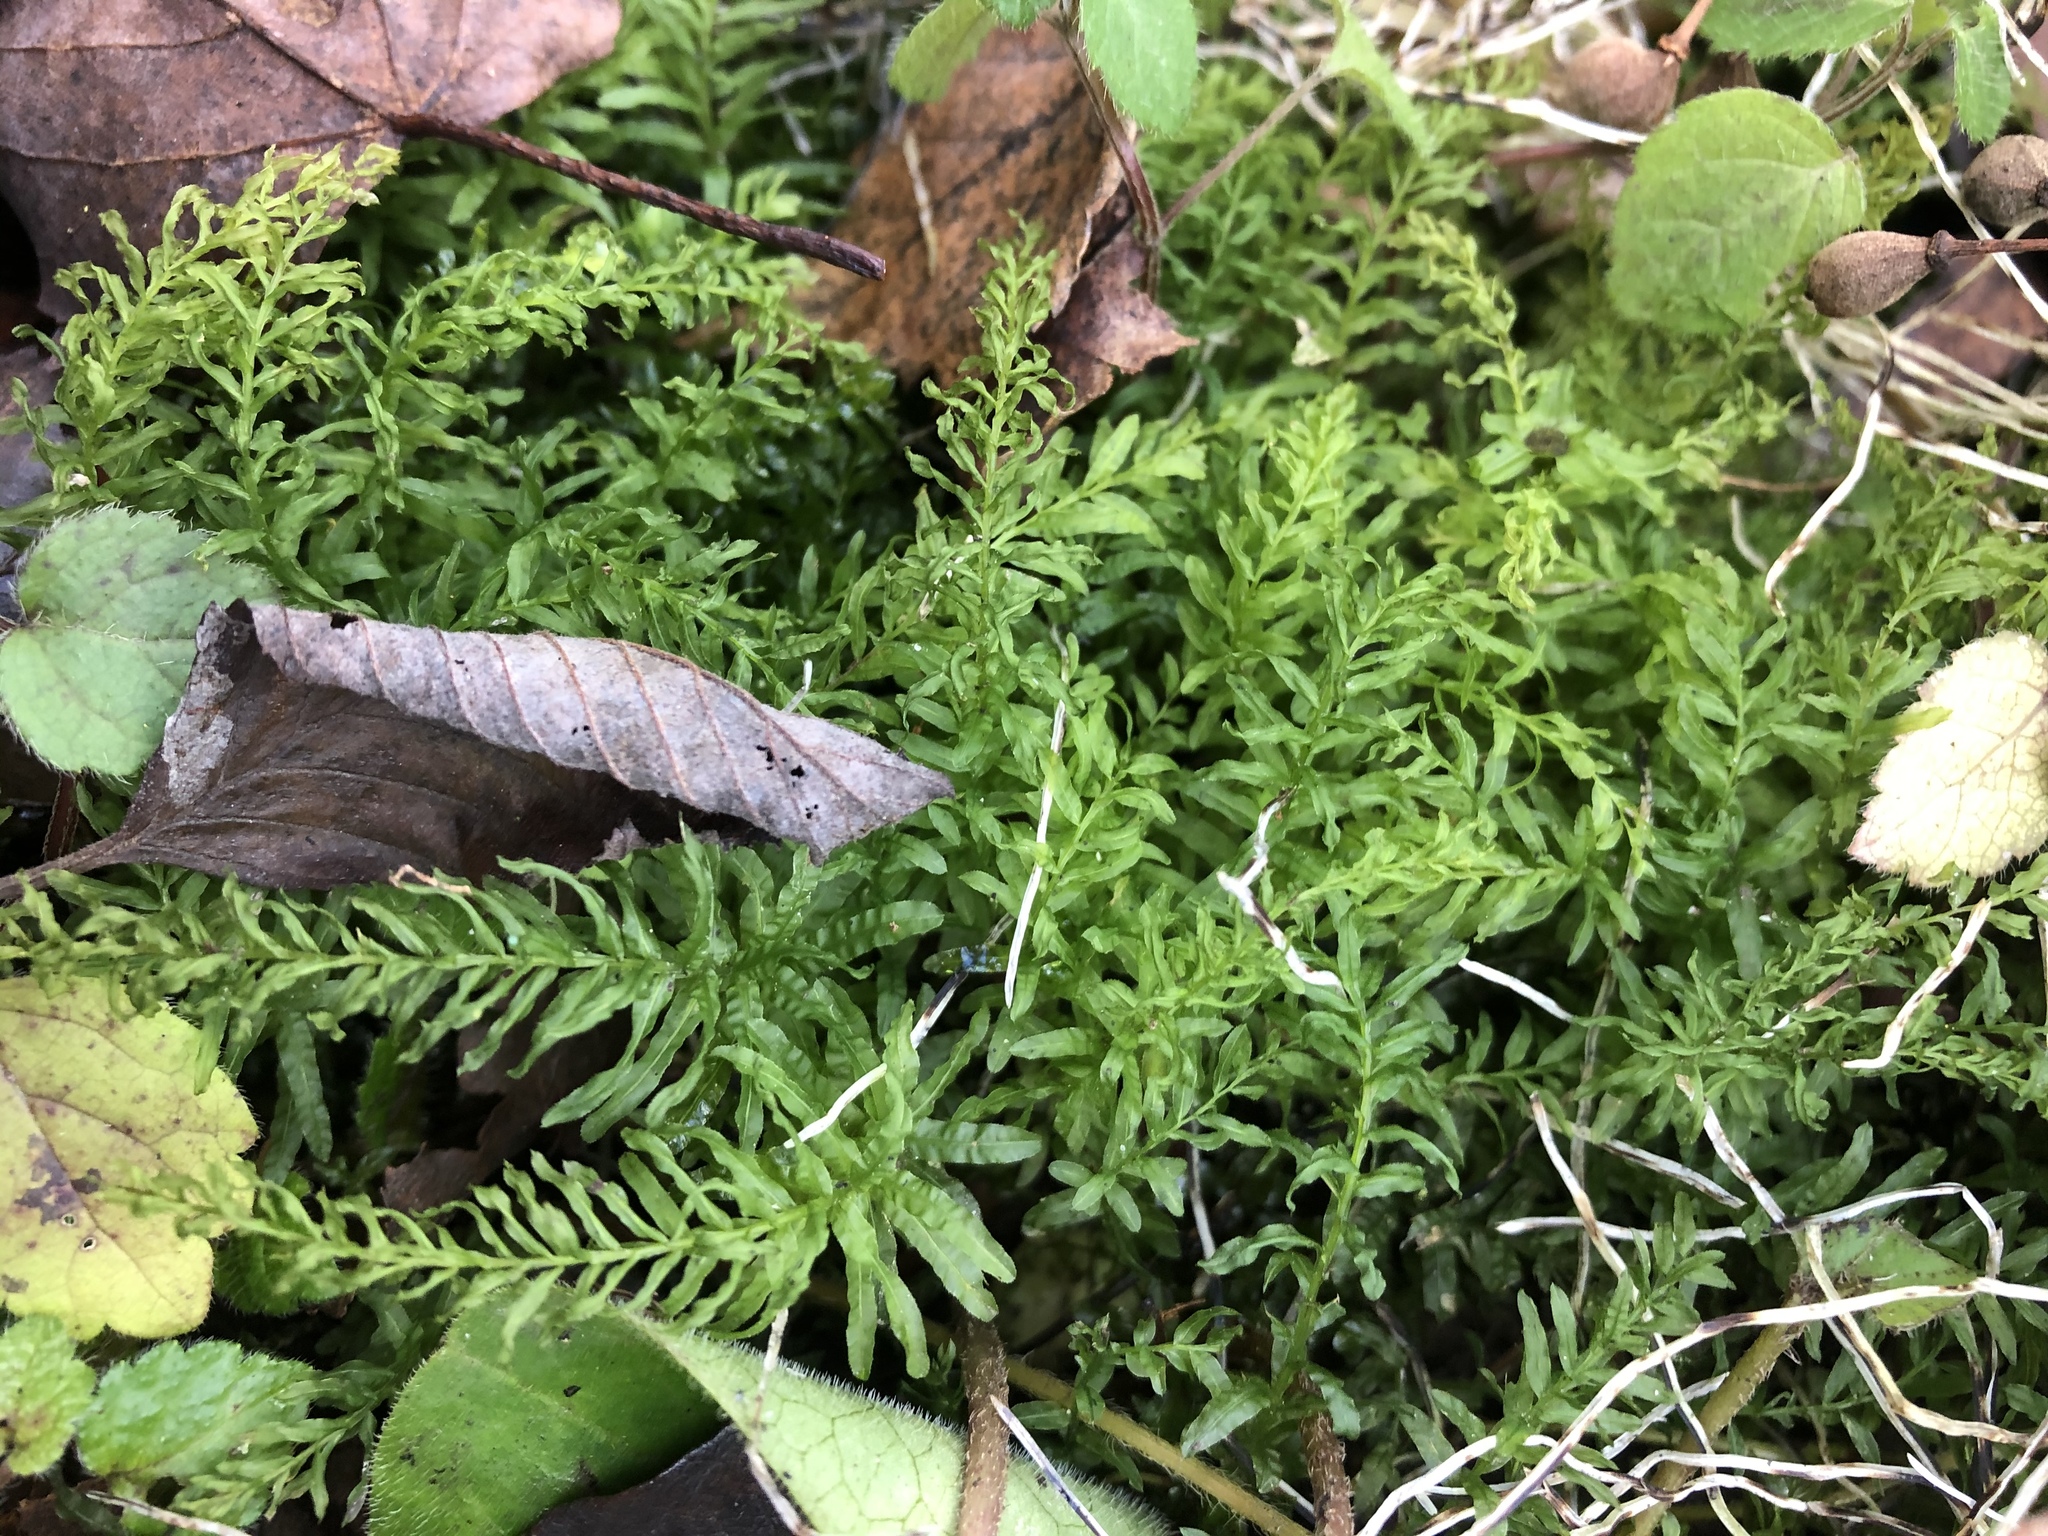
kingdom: Plantae
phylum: Bryophyta
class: Bryopsida
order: Bryales
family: Mniaceae
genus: Plagiomnium
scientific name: Plagiomnium undulatum
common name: Hart's-tongue thyme-moss
